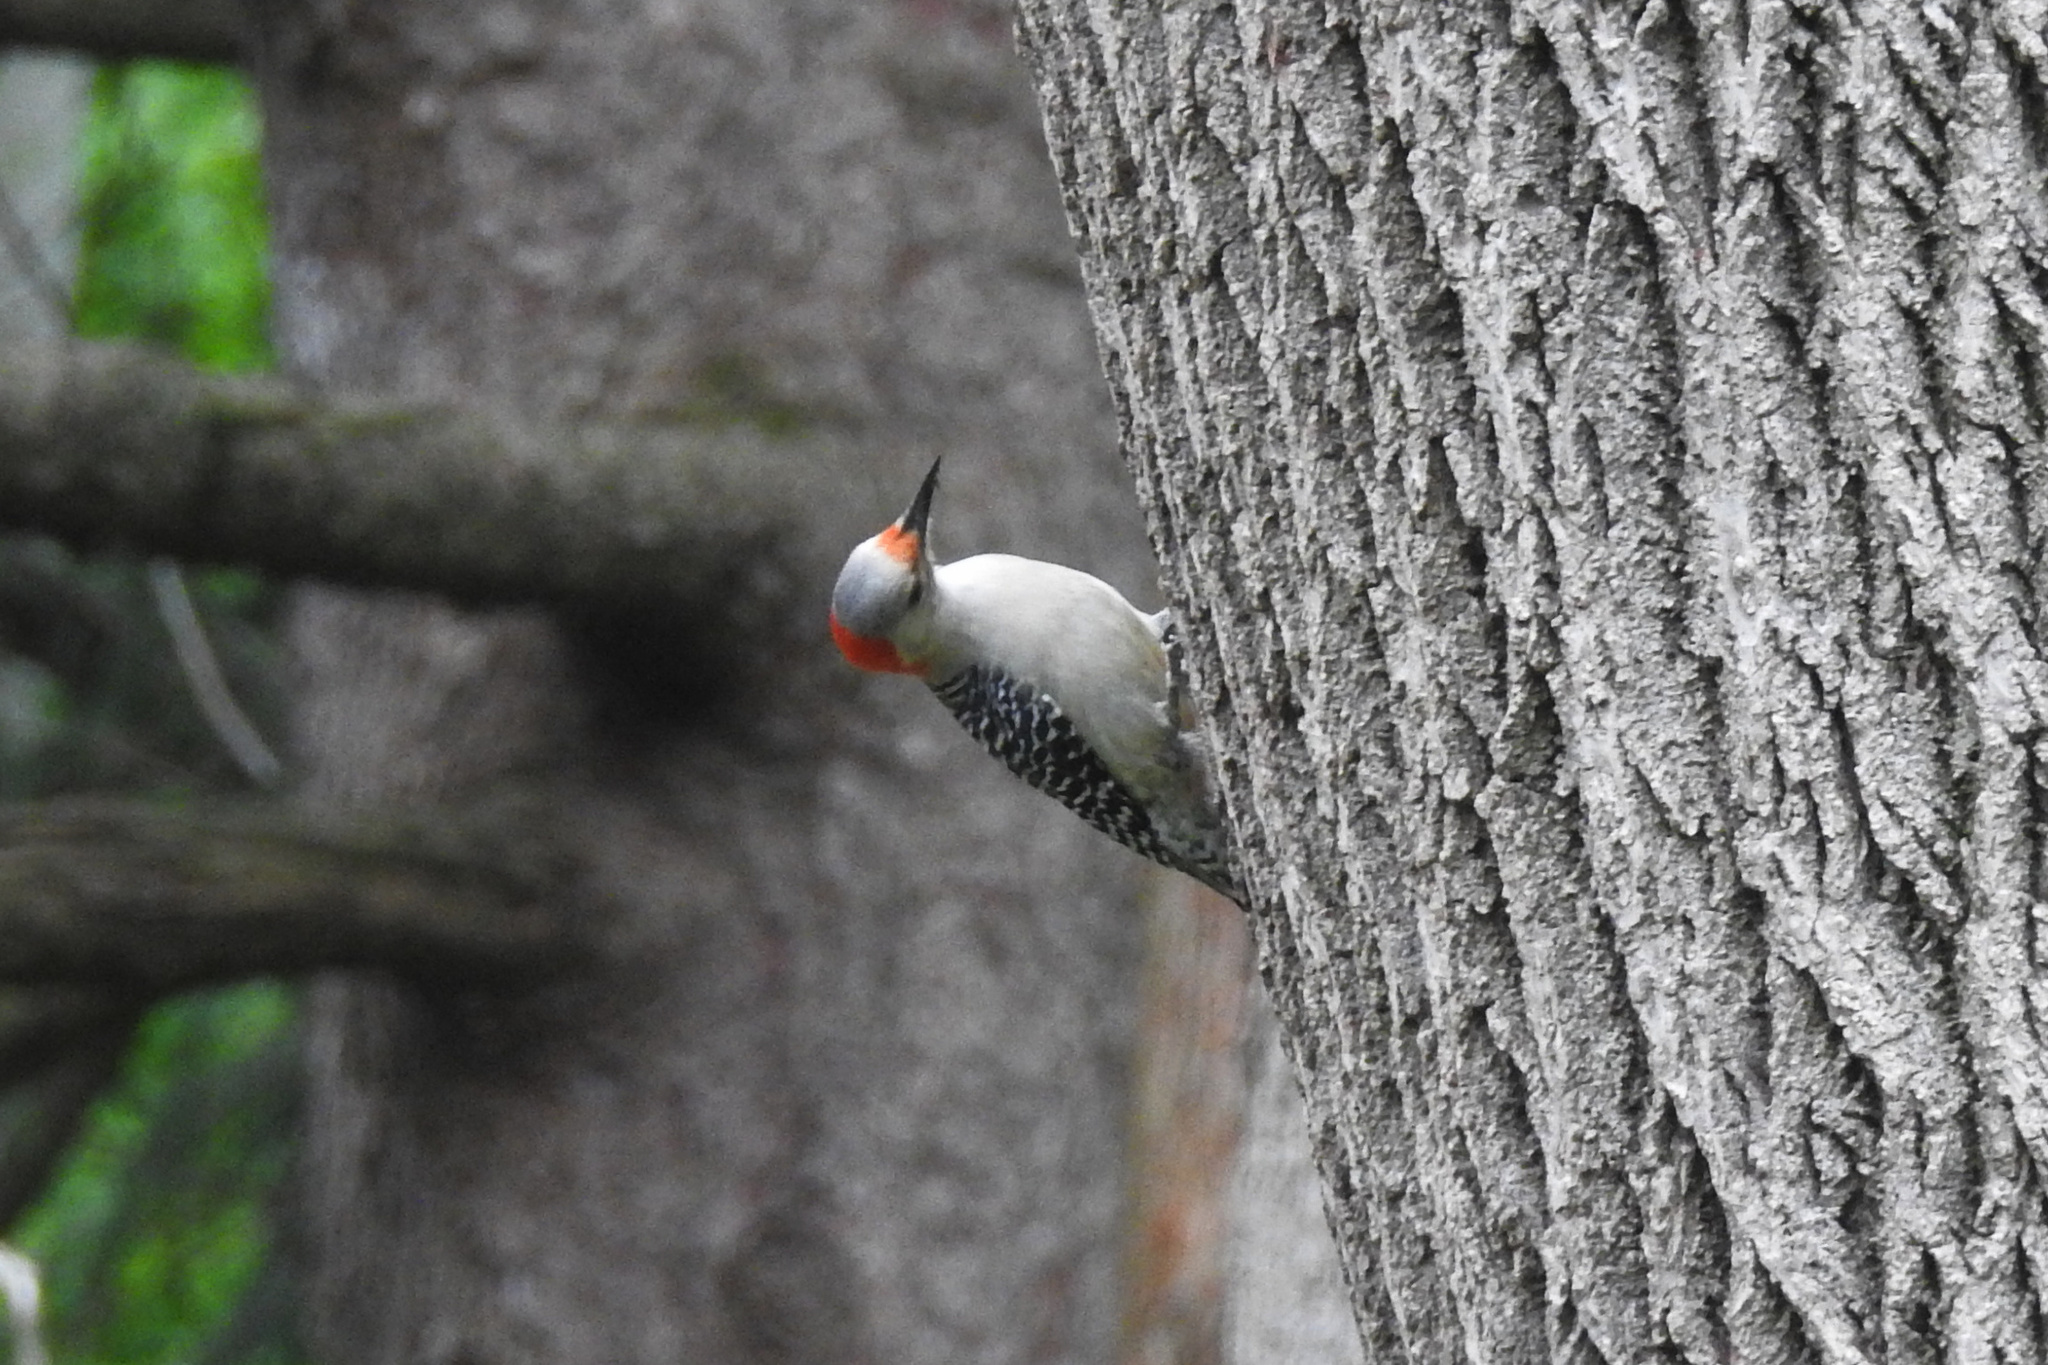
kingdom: Animalia
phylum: Chordata
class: Aves
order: Piciformes
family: Picidae
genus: Melanerpes
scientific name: Melanerpes carolinus
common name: Red-bellied woodpecker
